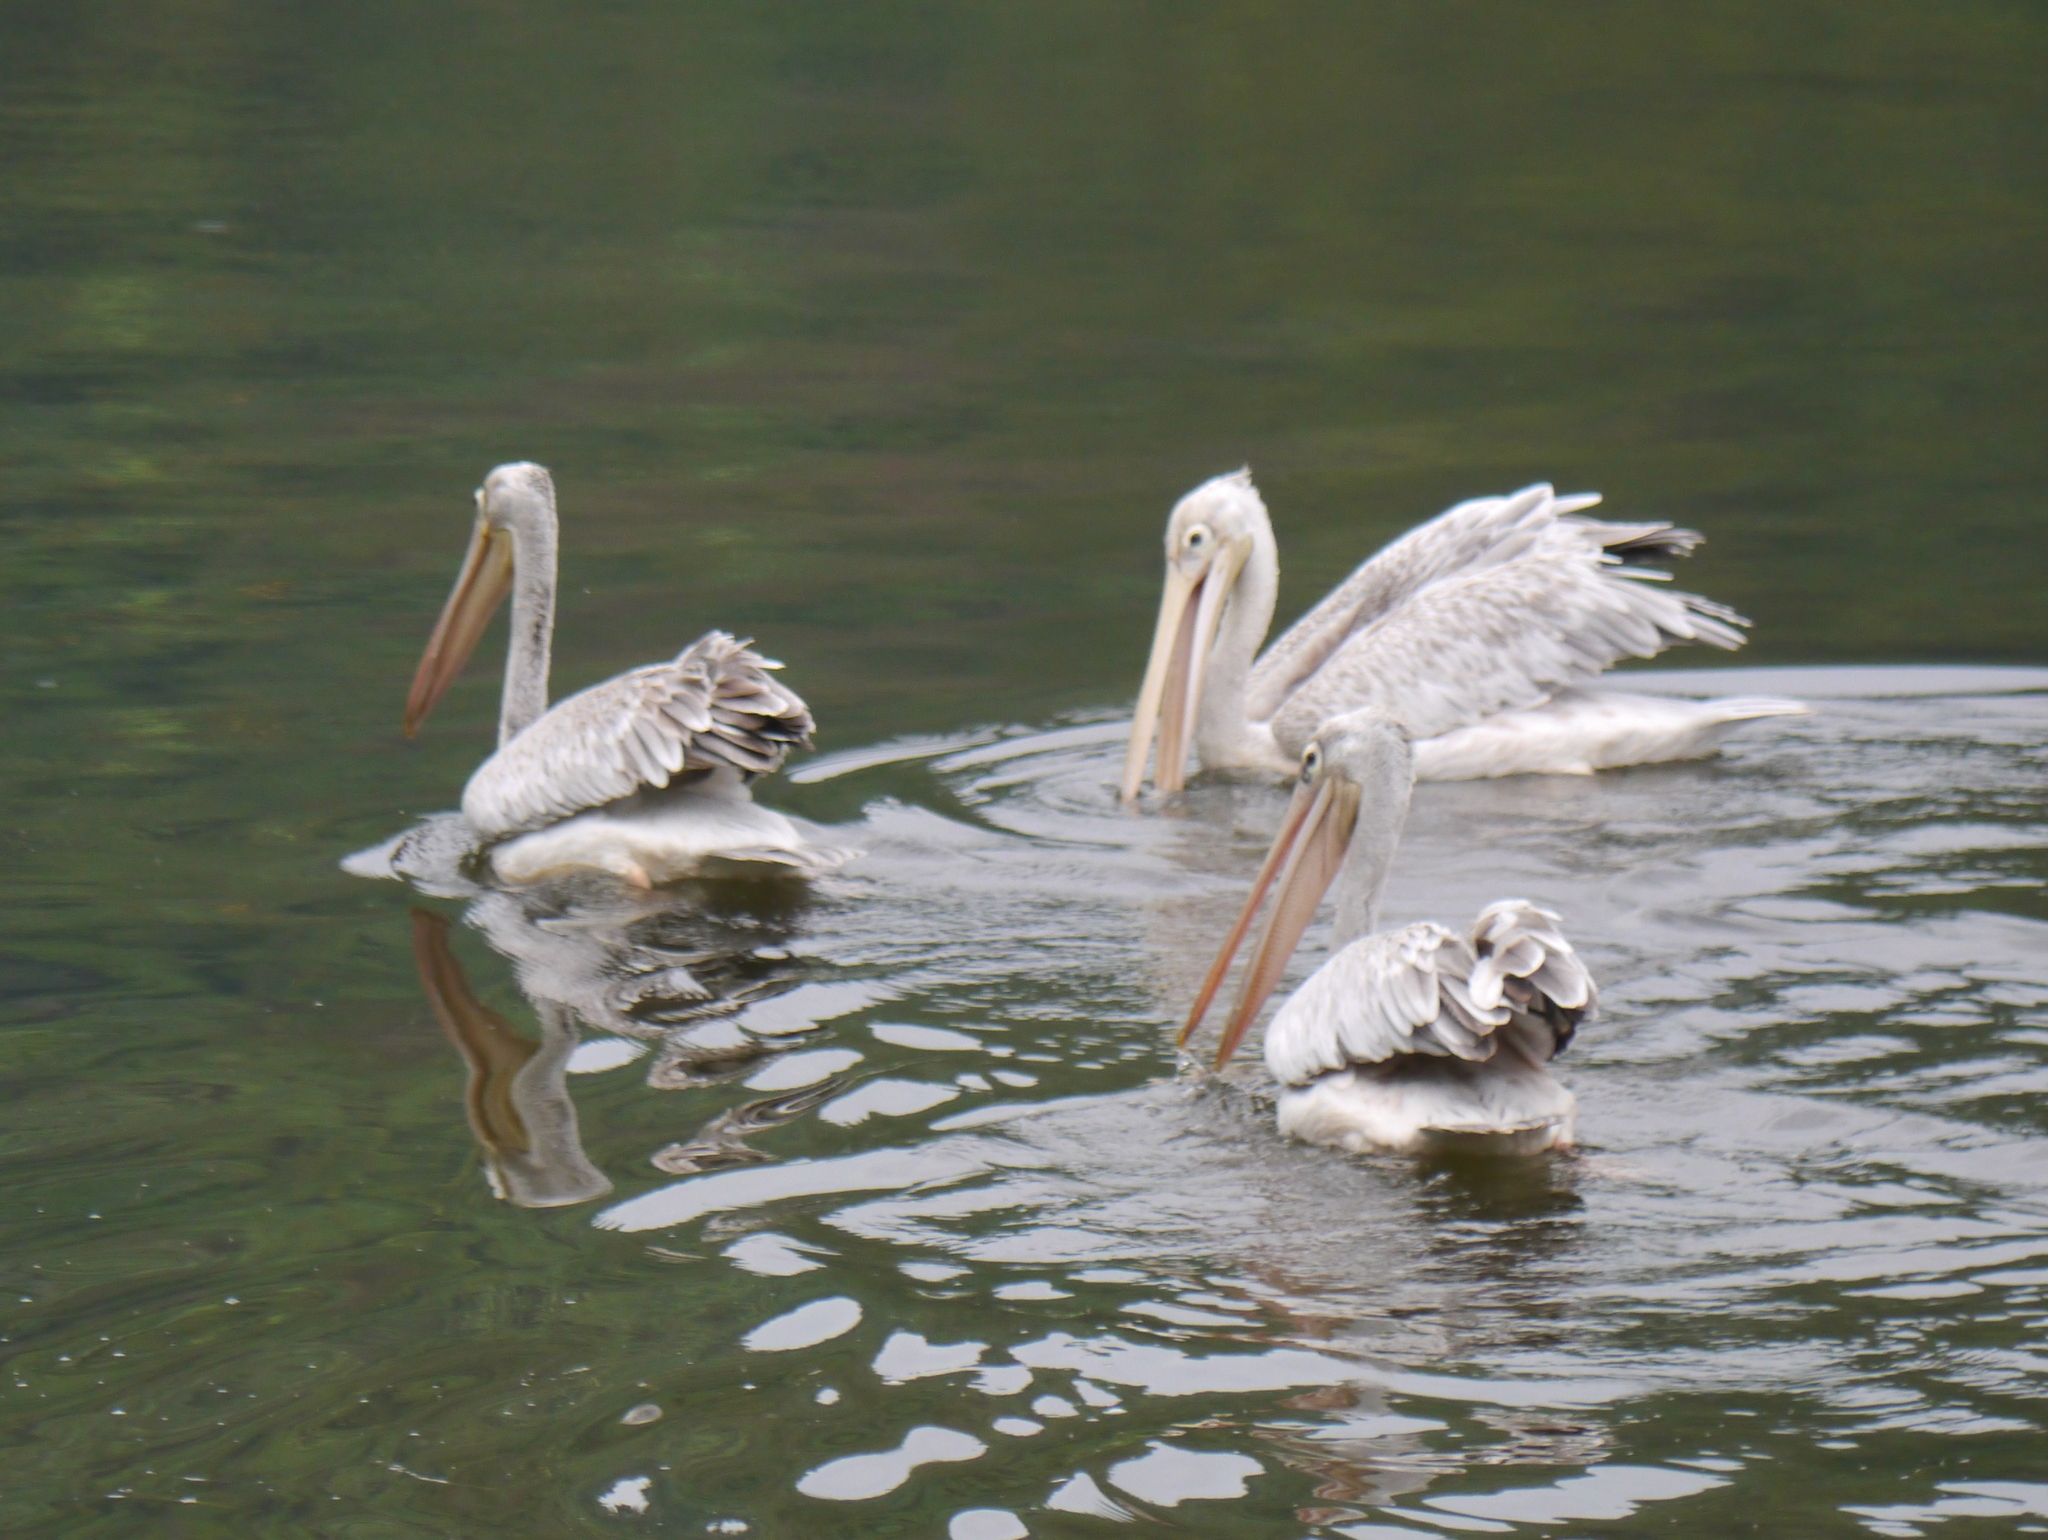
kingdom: Animalia
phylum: Chordata
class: Aves
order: Pelecaniformes
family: Pelecanidae
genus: Pelecanus
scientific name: Pelecanus rufescens
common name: Pink-backed pelican
